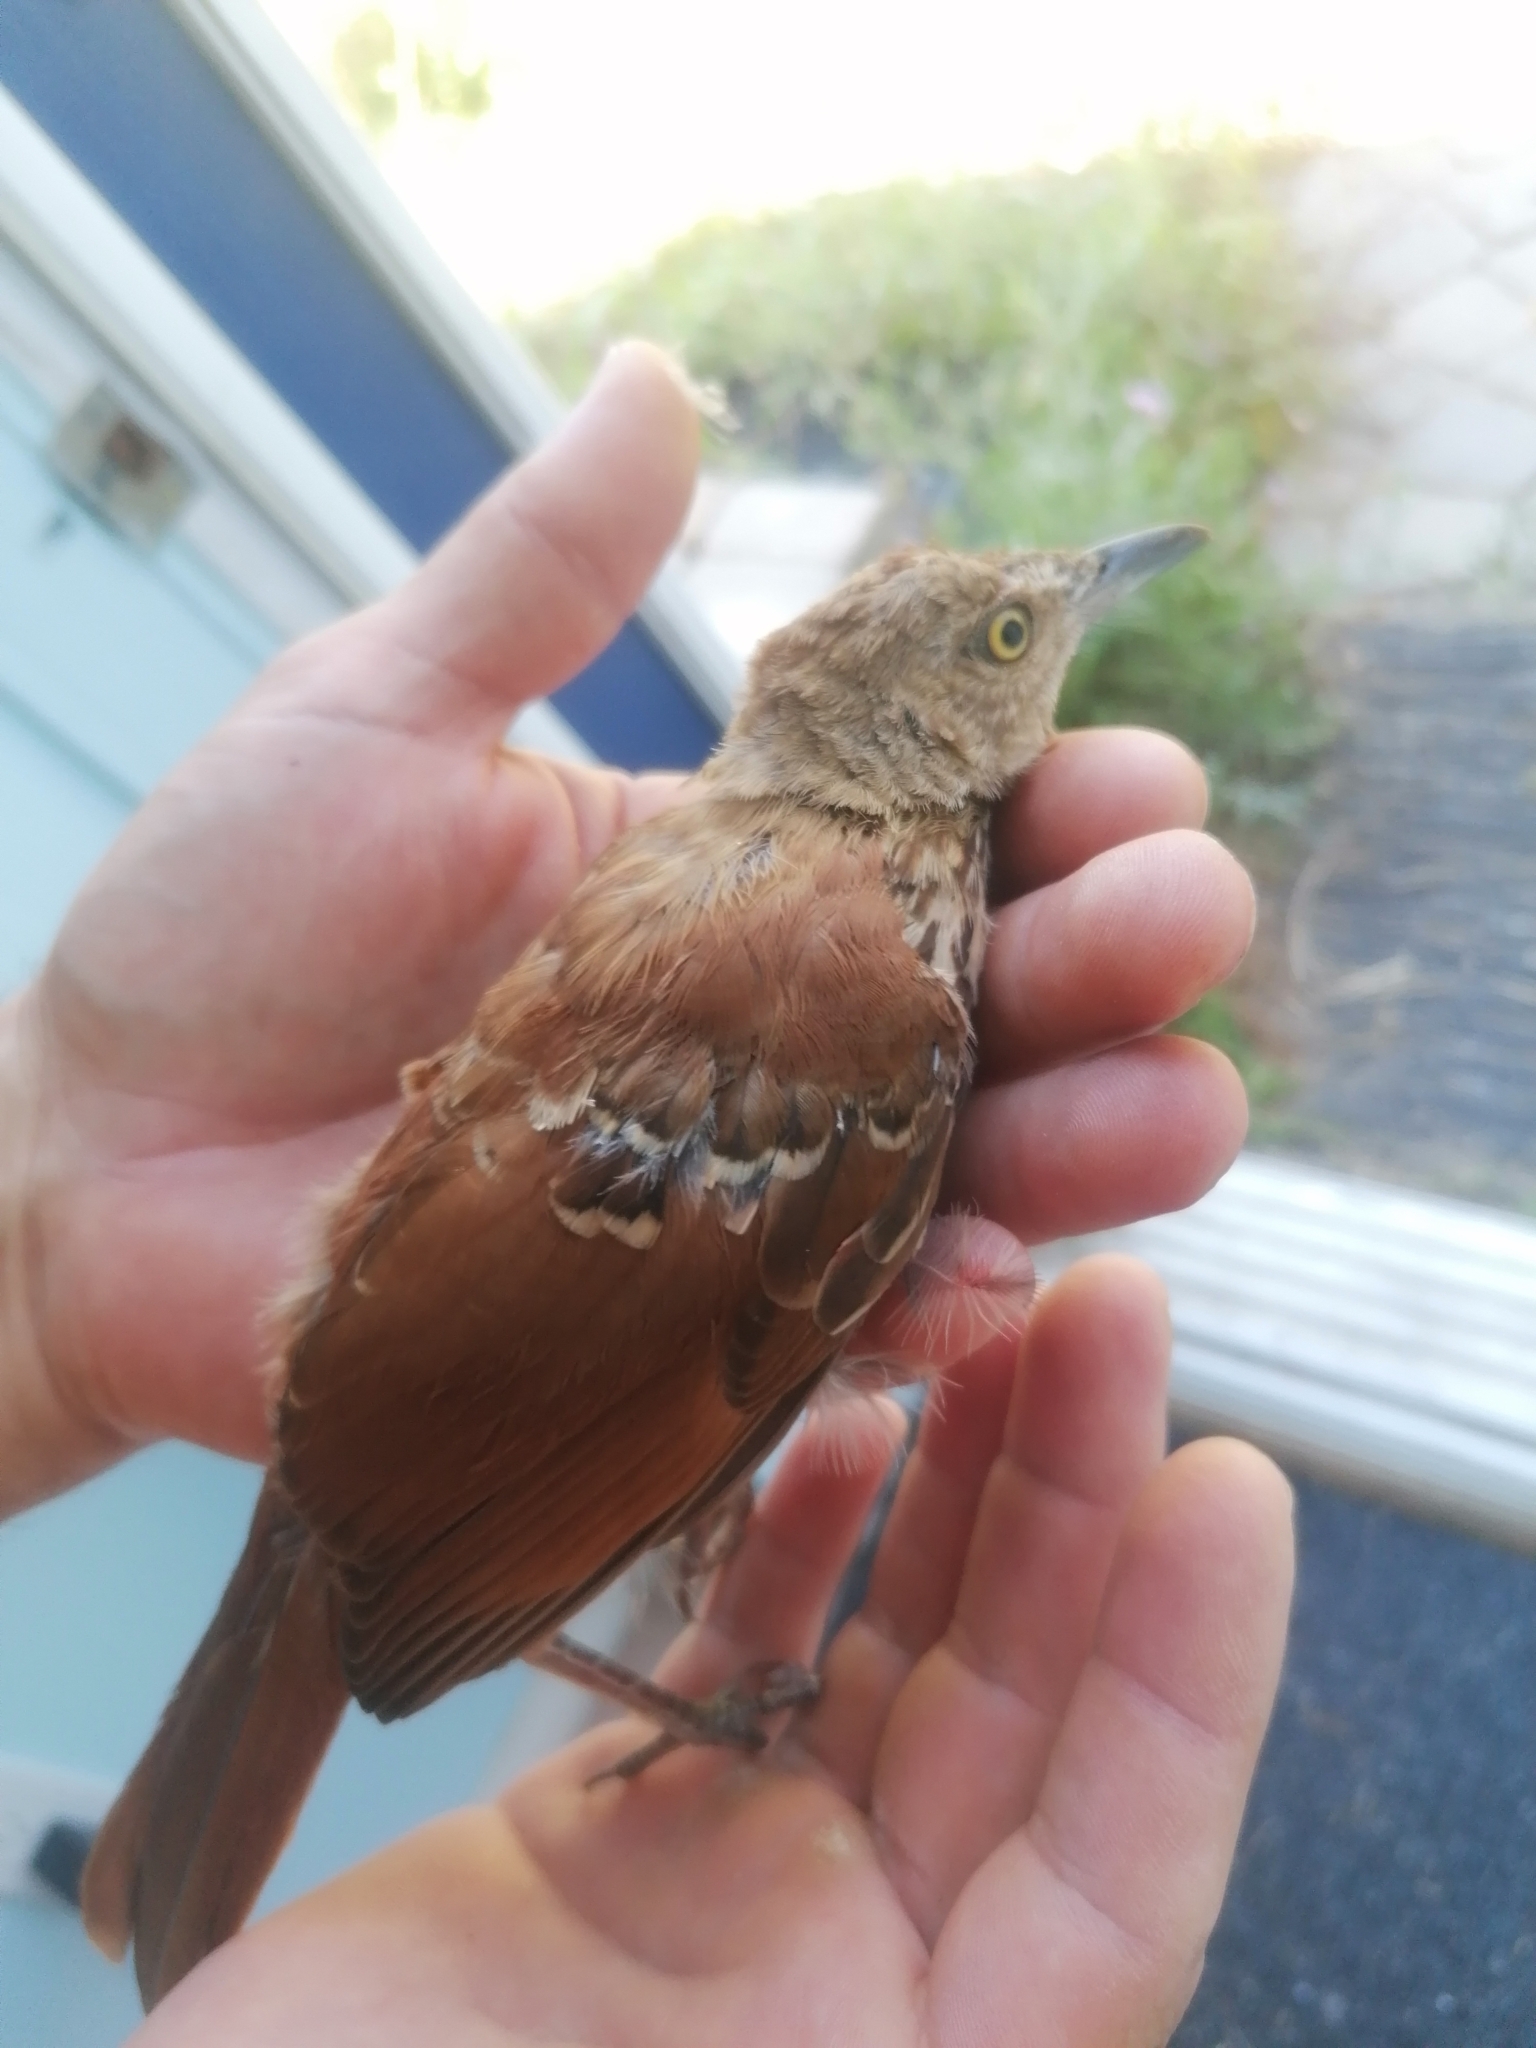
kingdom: Animalia
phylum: Chordata
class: Aves
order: Passeriformes
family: Mimidae
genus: Toxostoma
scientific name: Toxostoma rufum
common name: Brown thrasher
